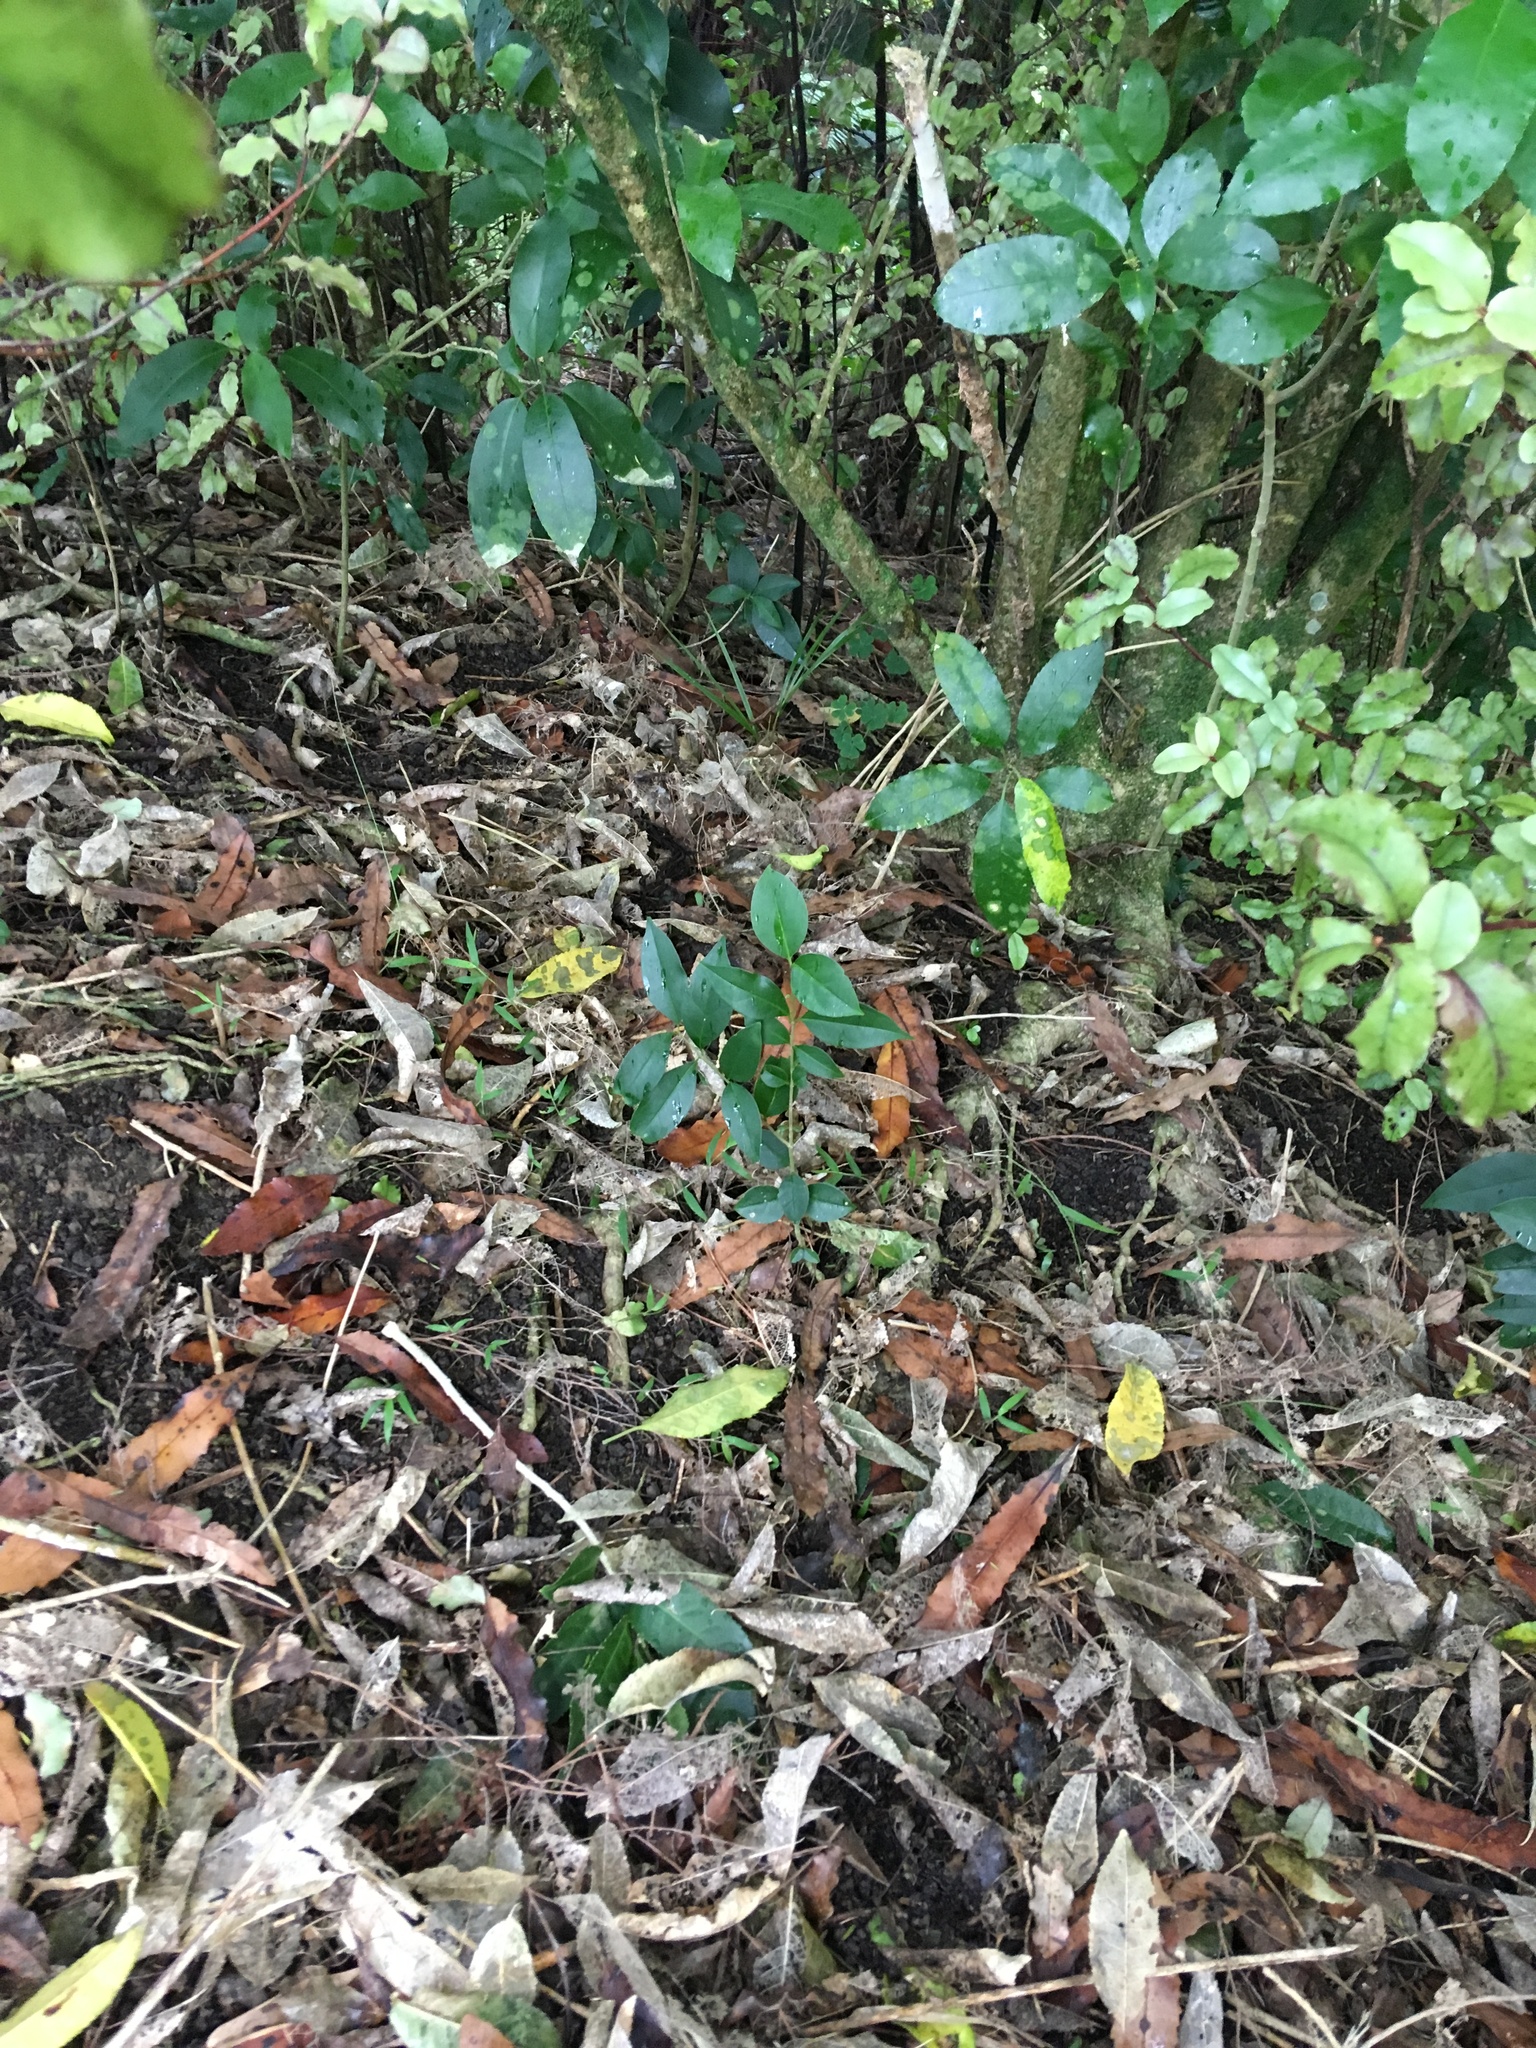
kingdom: Plantae
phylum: Tracheophyta
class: Magnoliopsida
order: Lamiales
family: Oleaceae
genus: Ligustrum
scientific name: Ligustrum lucidum
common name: Glossy privet
